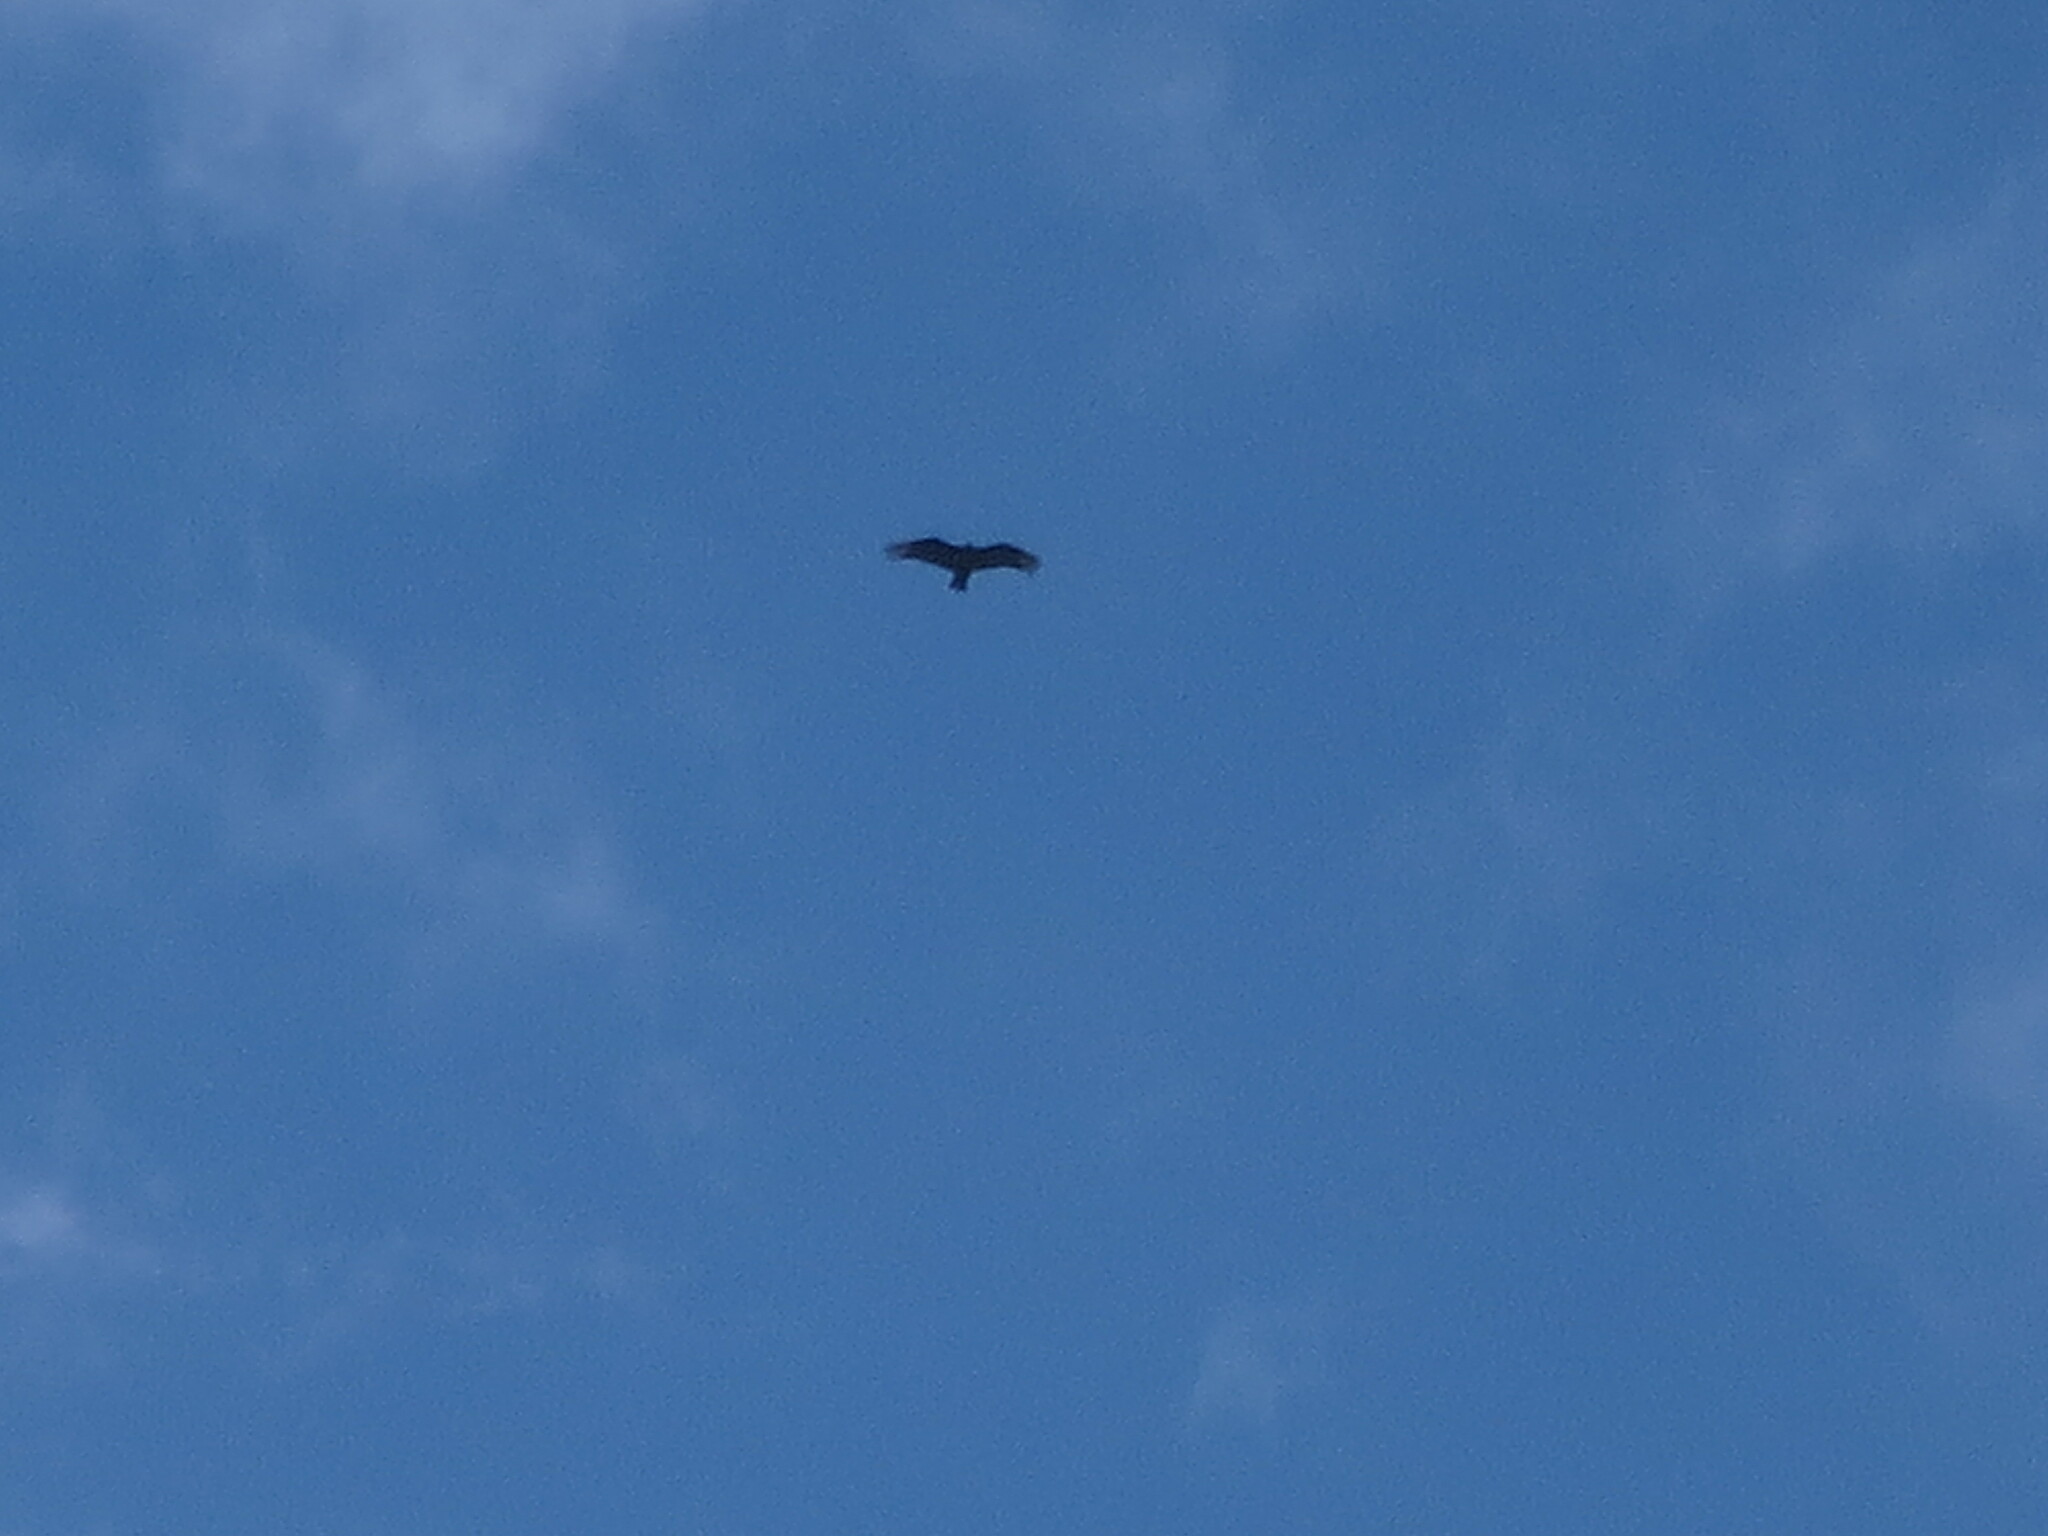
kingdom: Animalia
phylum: Chordata
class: Aves
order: Accipitriformes
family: Cathartidae
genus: Coragyps
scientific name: Coragyps atratus
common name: Black vulture
